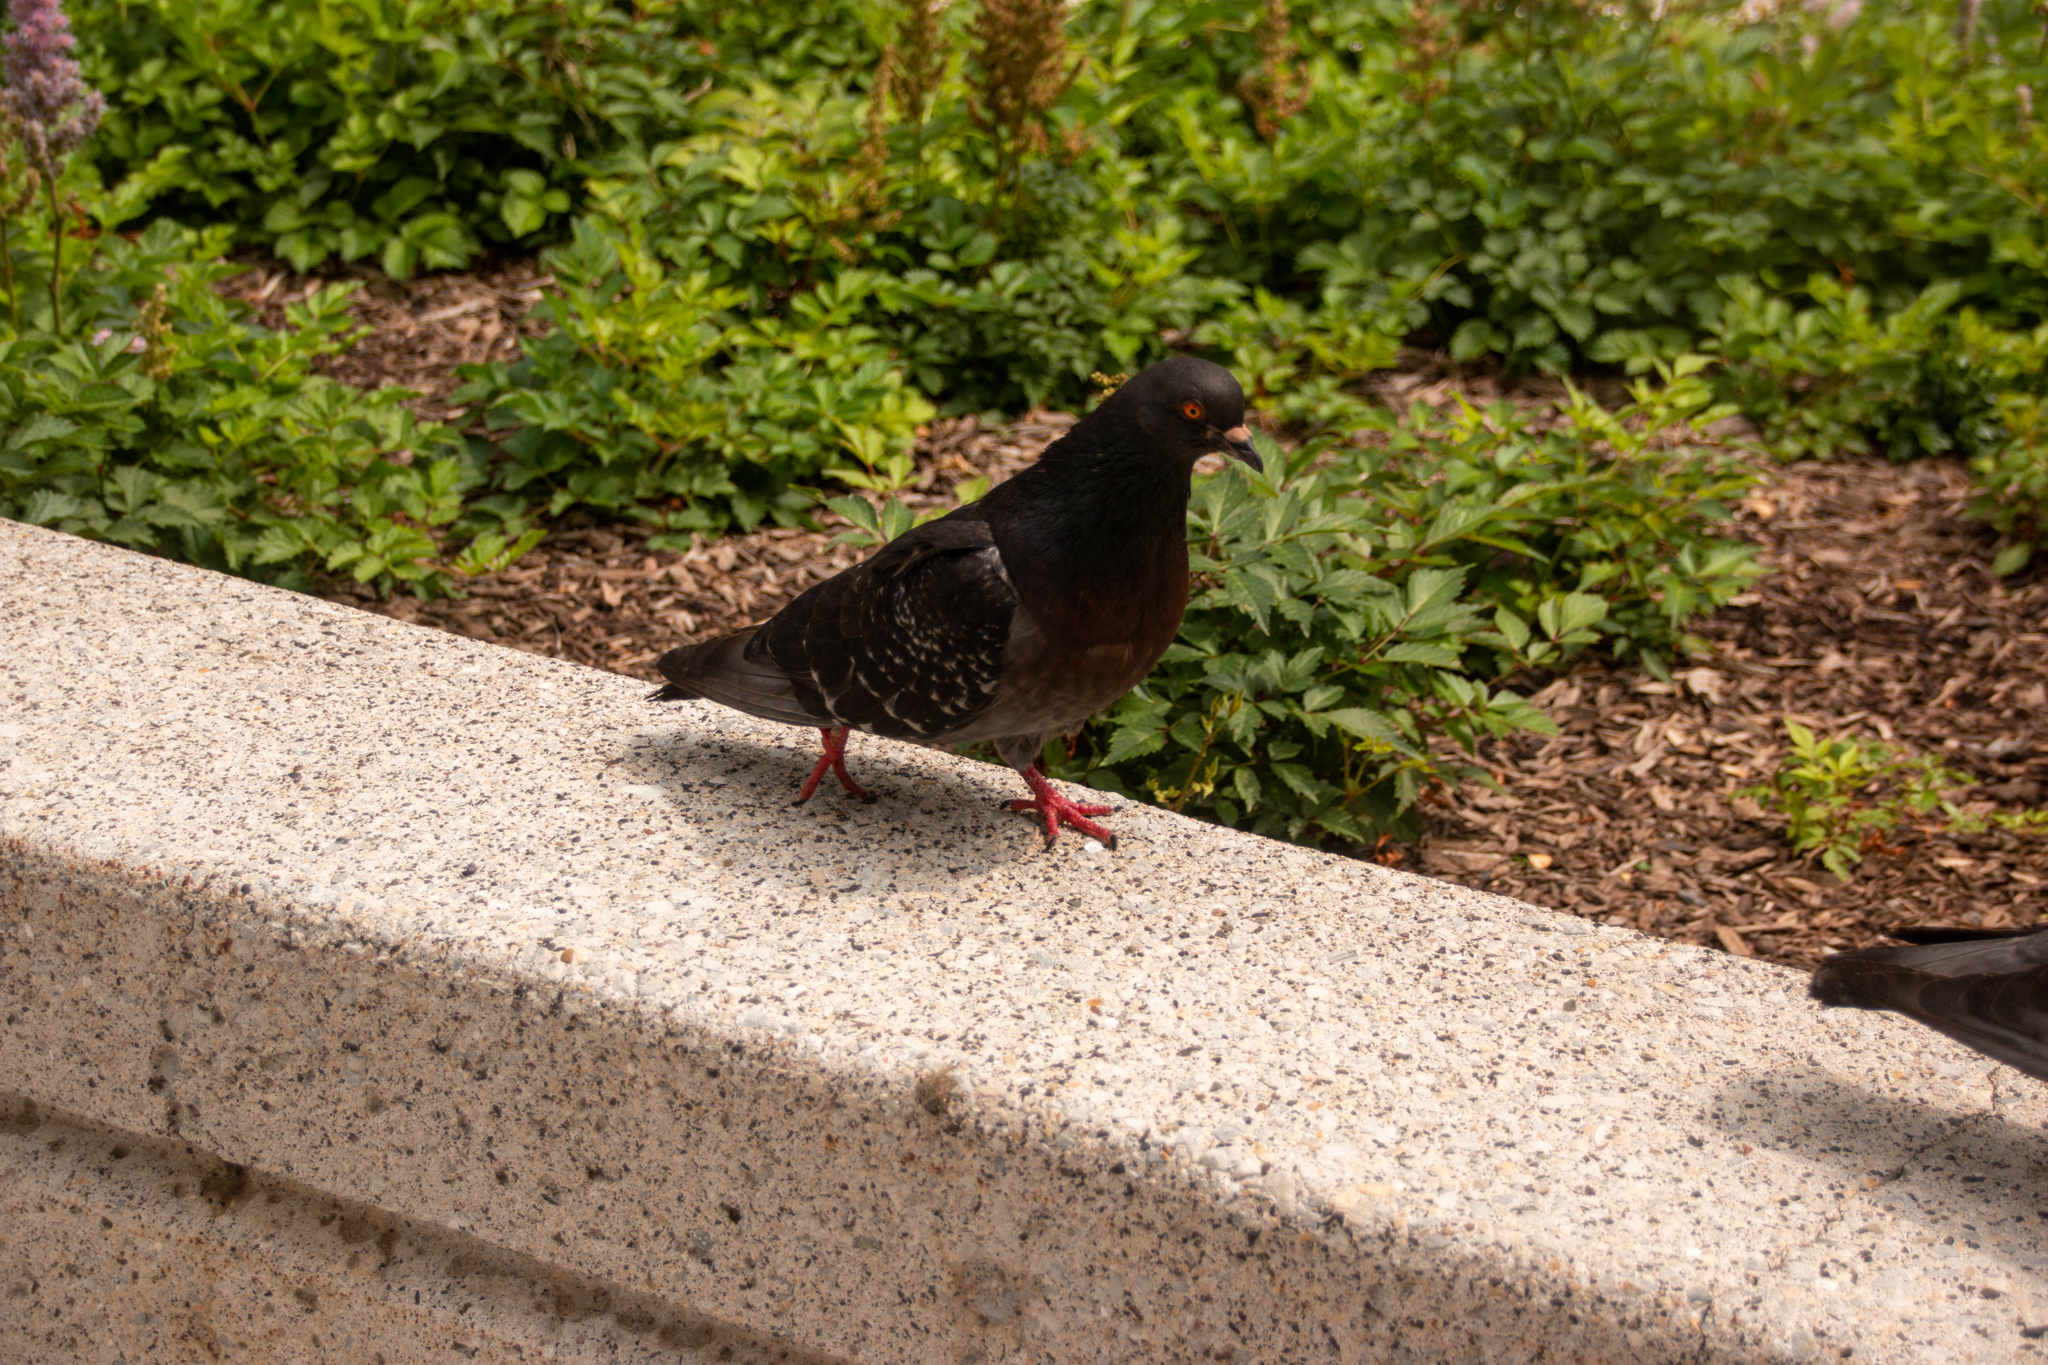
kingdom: Animalia
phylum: Chordata
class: Aves
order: Columbiformes
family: Columbidae
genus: Columba
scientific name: Columba livia
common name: Rock pigeon
